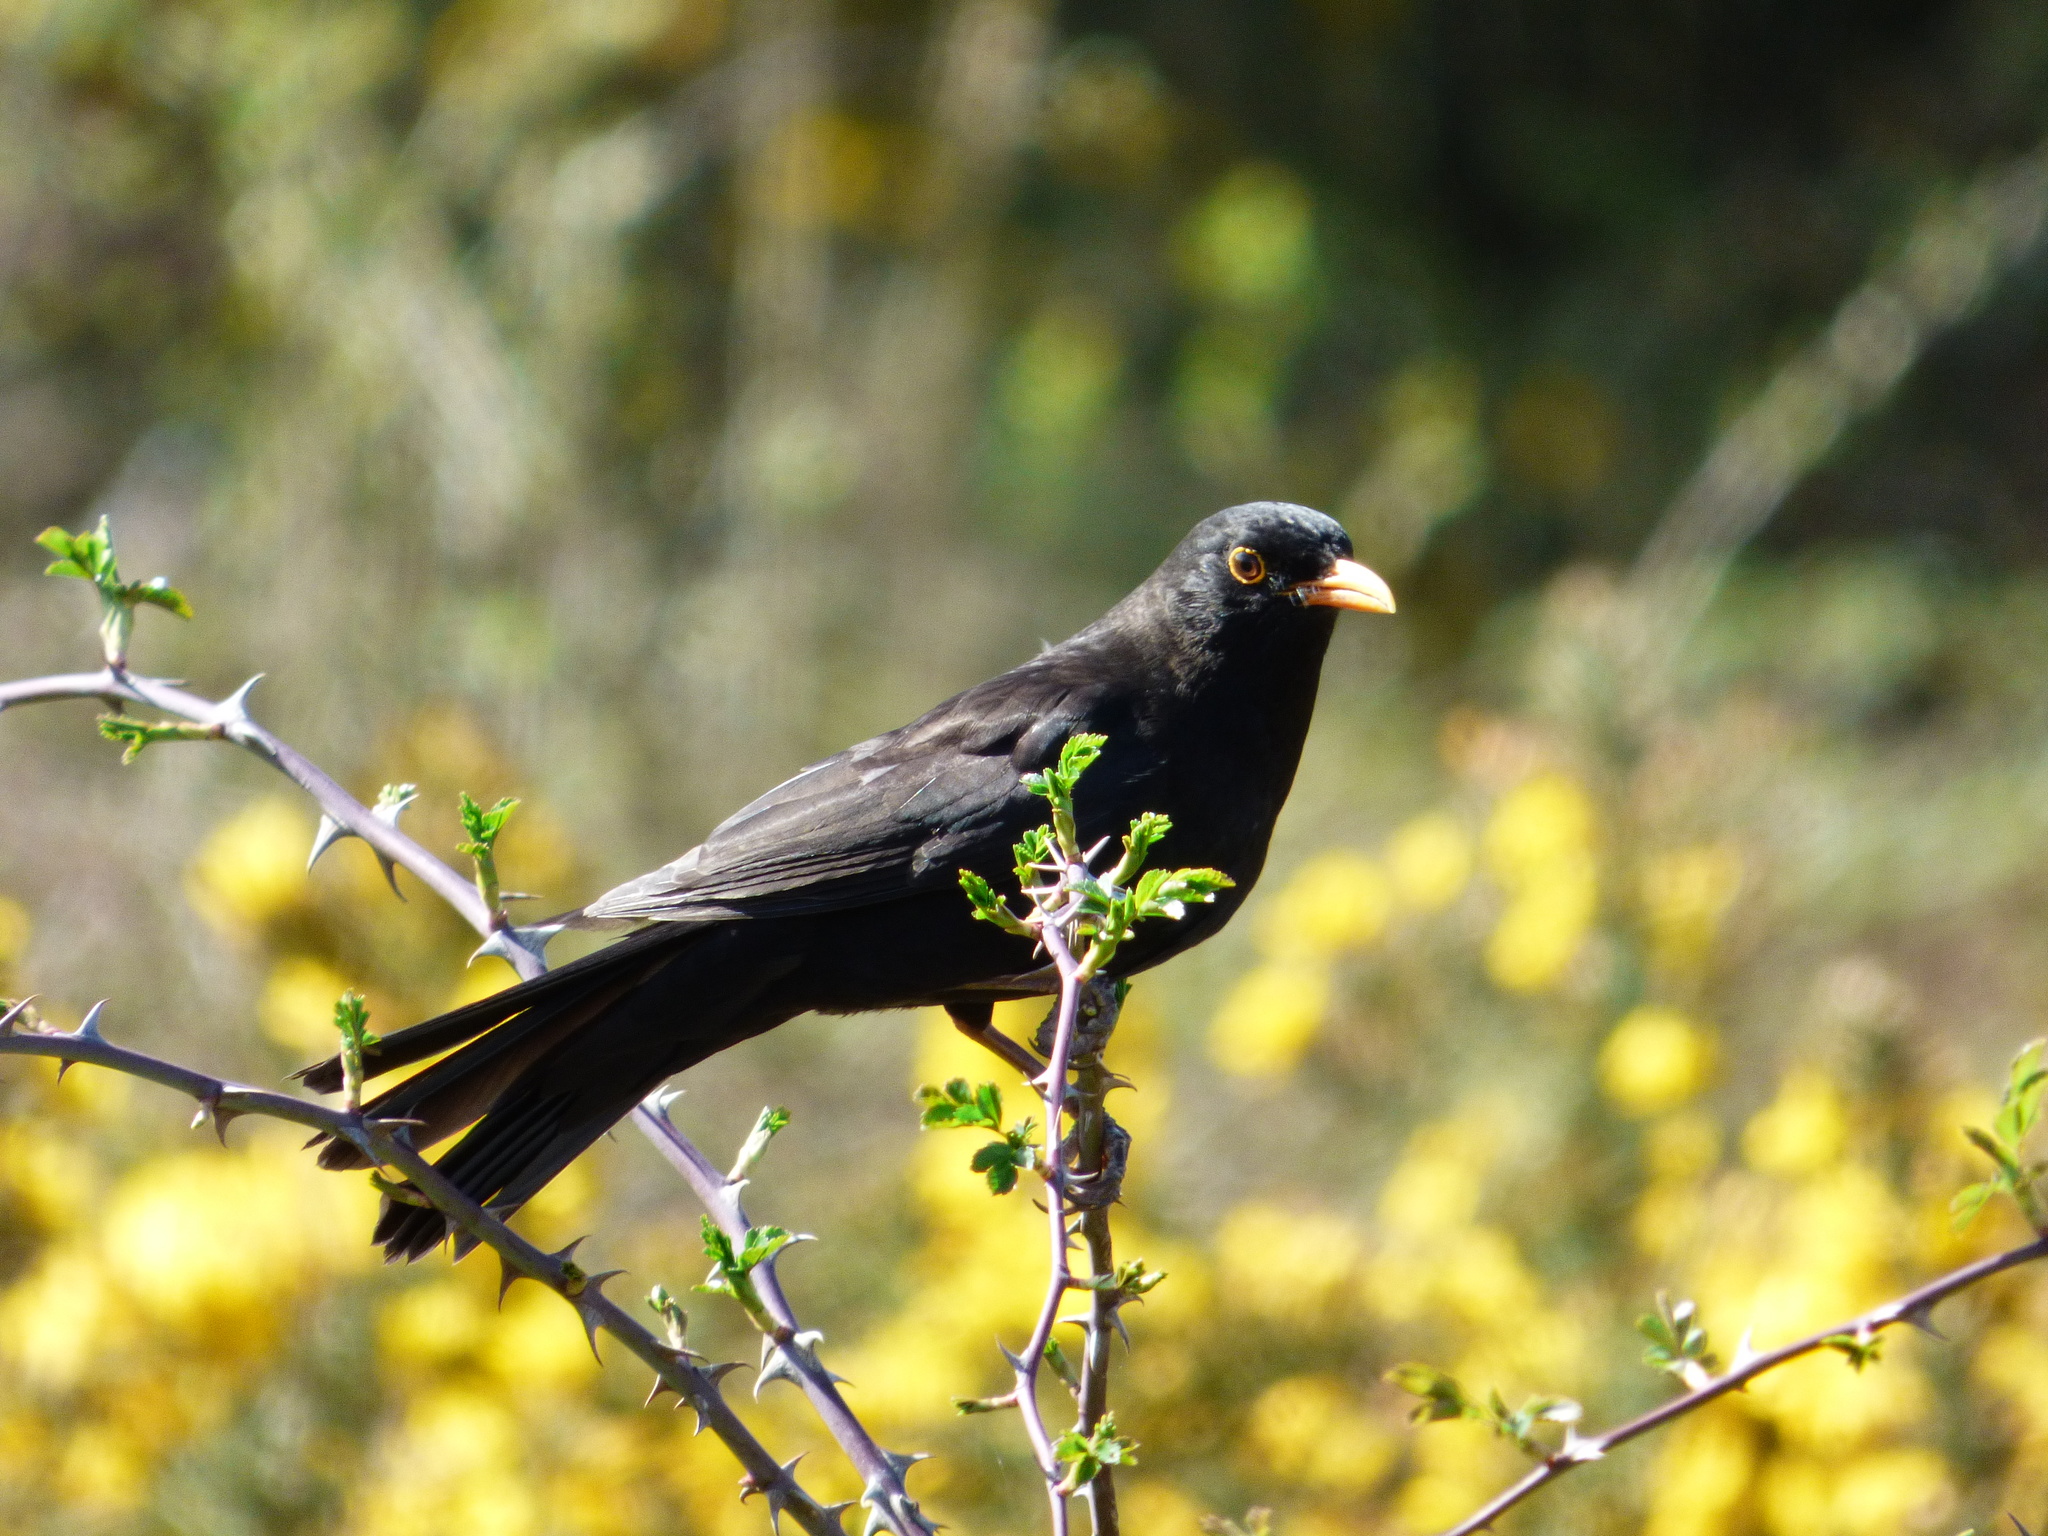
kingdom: Animalia
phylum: Chordata
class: Aves
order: Passeriformes
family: Turdidae
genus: Turdus
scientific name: Turdus merula
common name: Common blackbird
